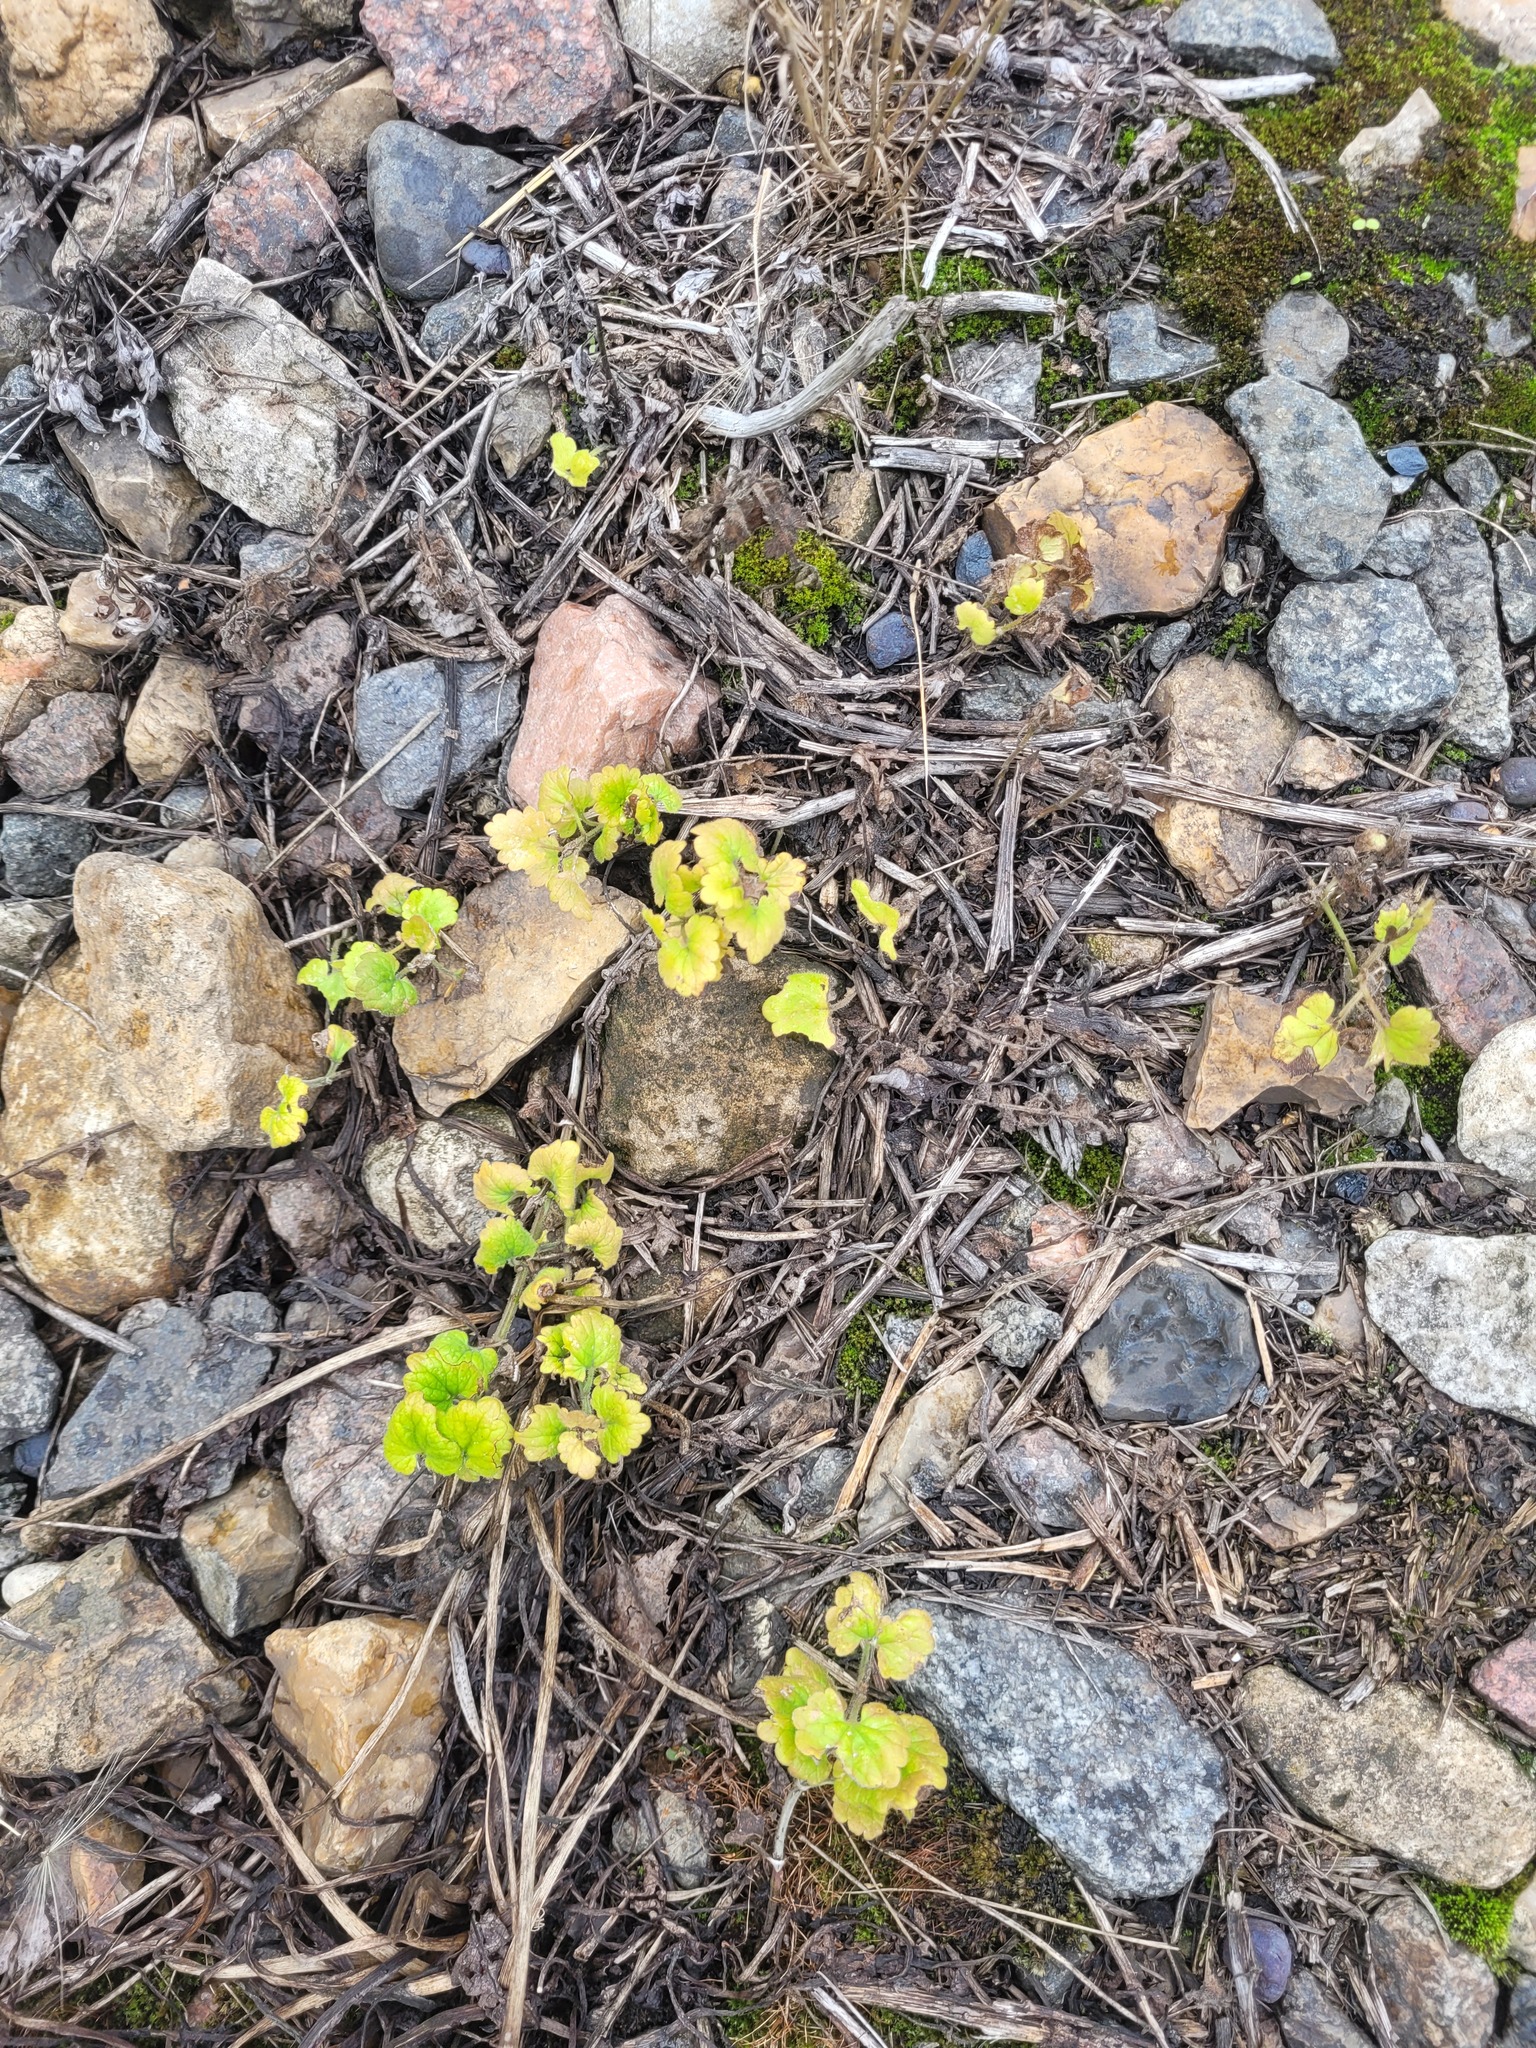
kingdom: Plantae
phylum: Tracheophyta
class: Magnoliopsida
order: Lamiales
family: Lamiaceae
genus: Glechoma
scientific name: Glechoma hederacea
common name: Ground ivy
